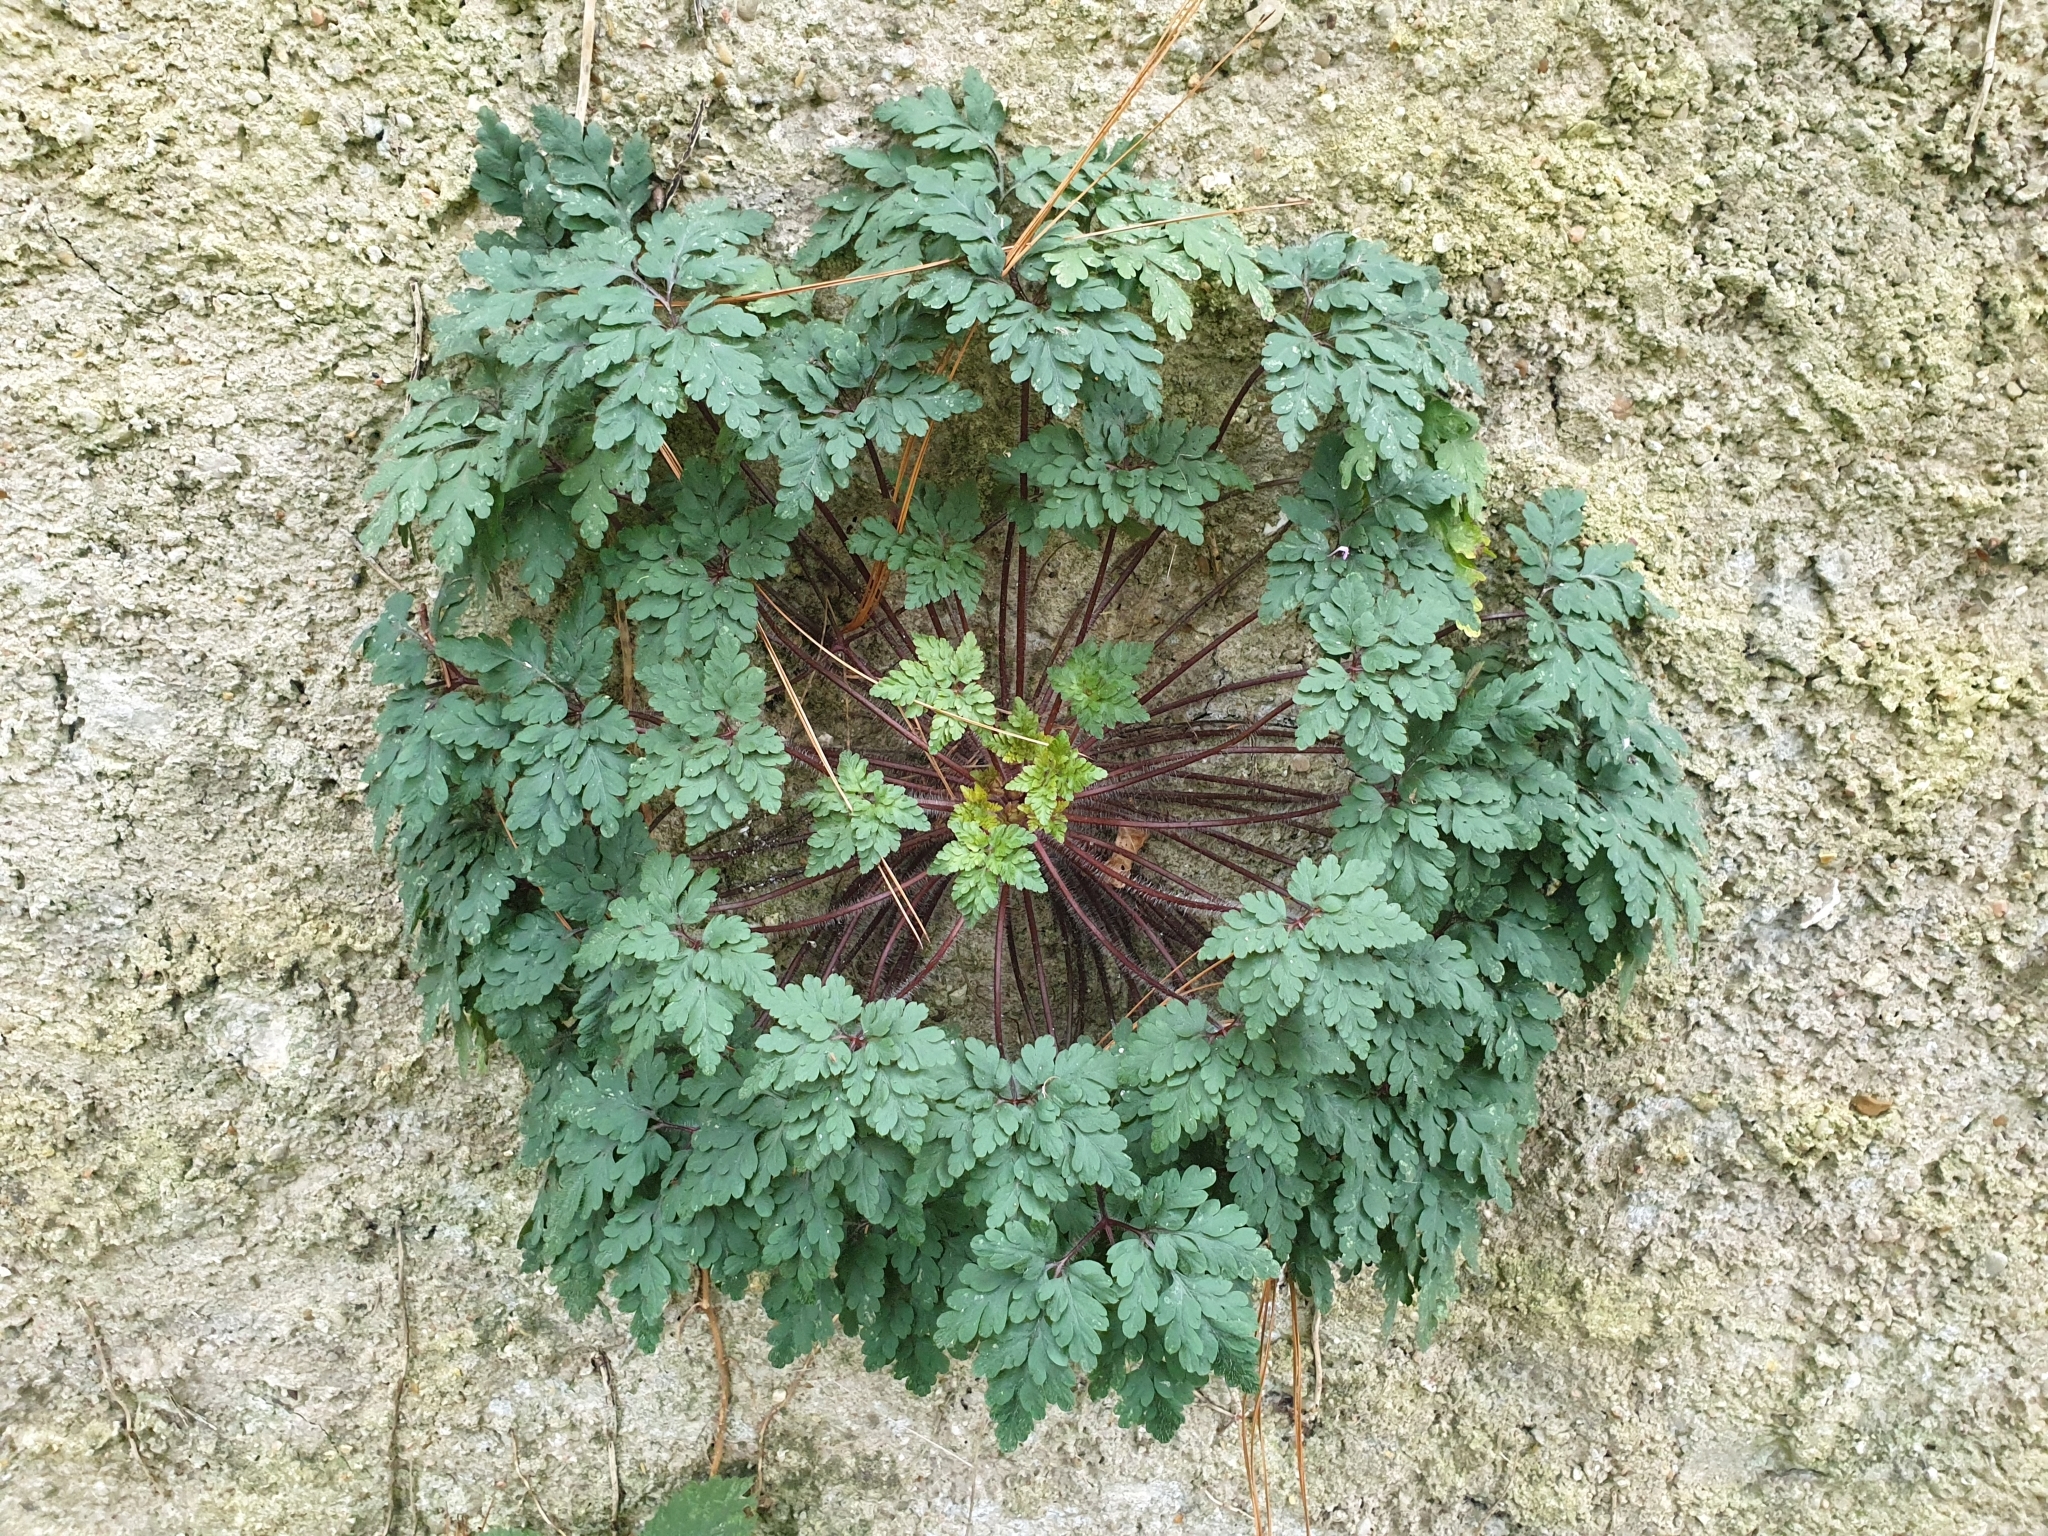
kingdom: Plantae
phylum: Tracheophyta
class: Magnoliopsida
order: Geraniales
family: Geraniaceae
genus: Geranium
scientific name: Geranium robertianum
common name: Herb-robert
